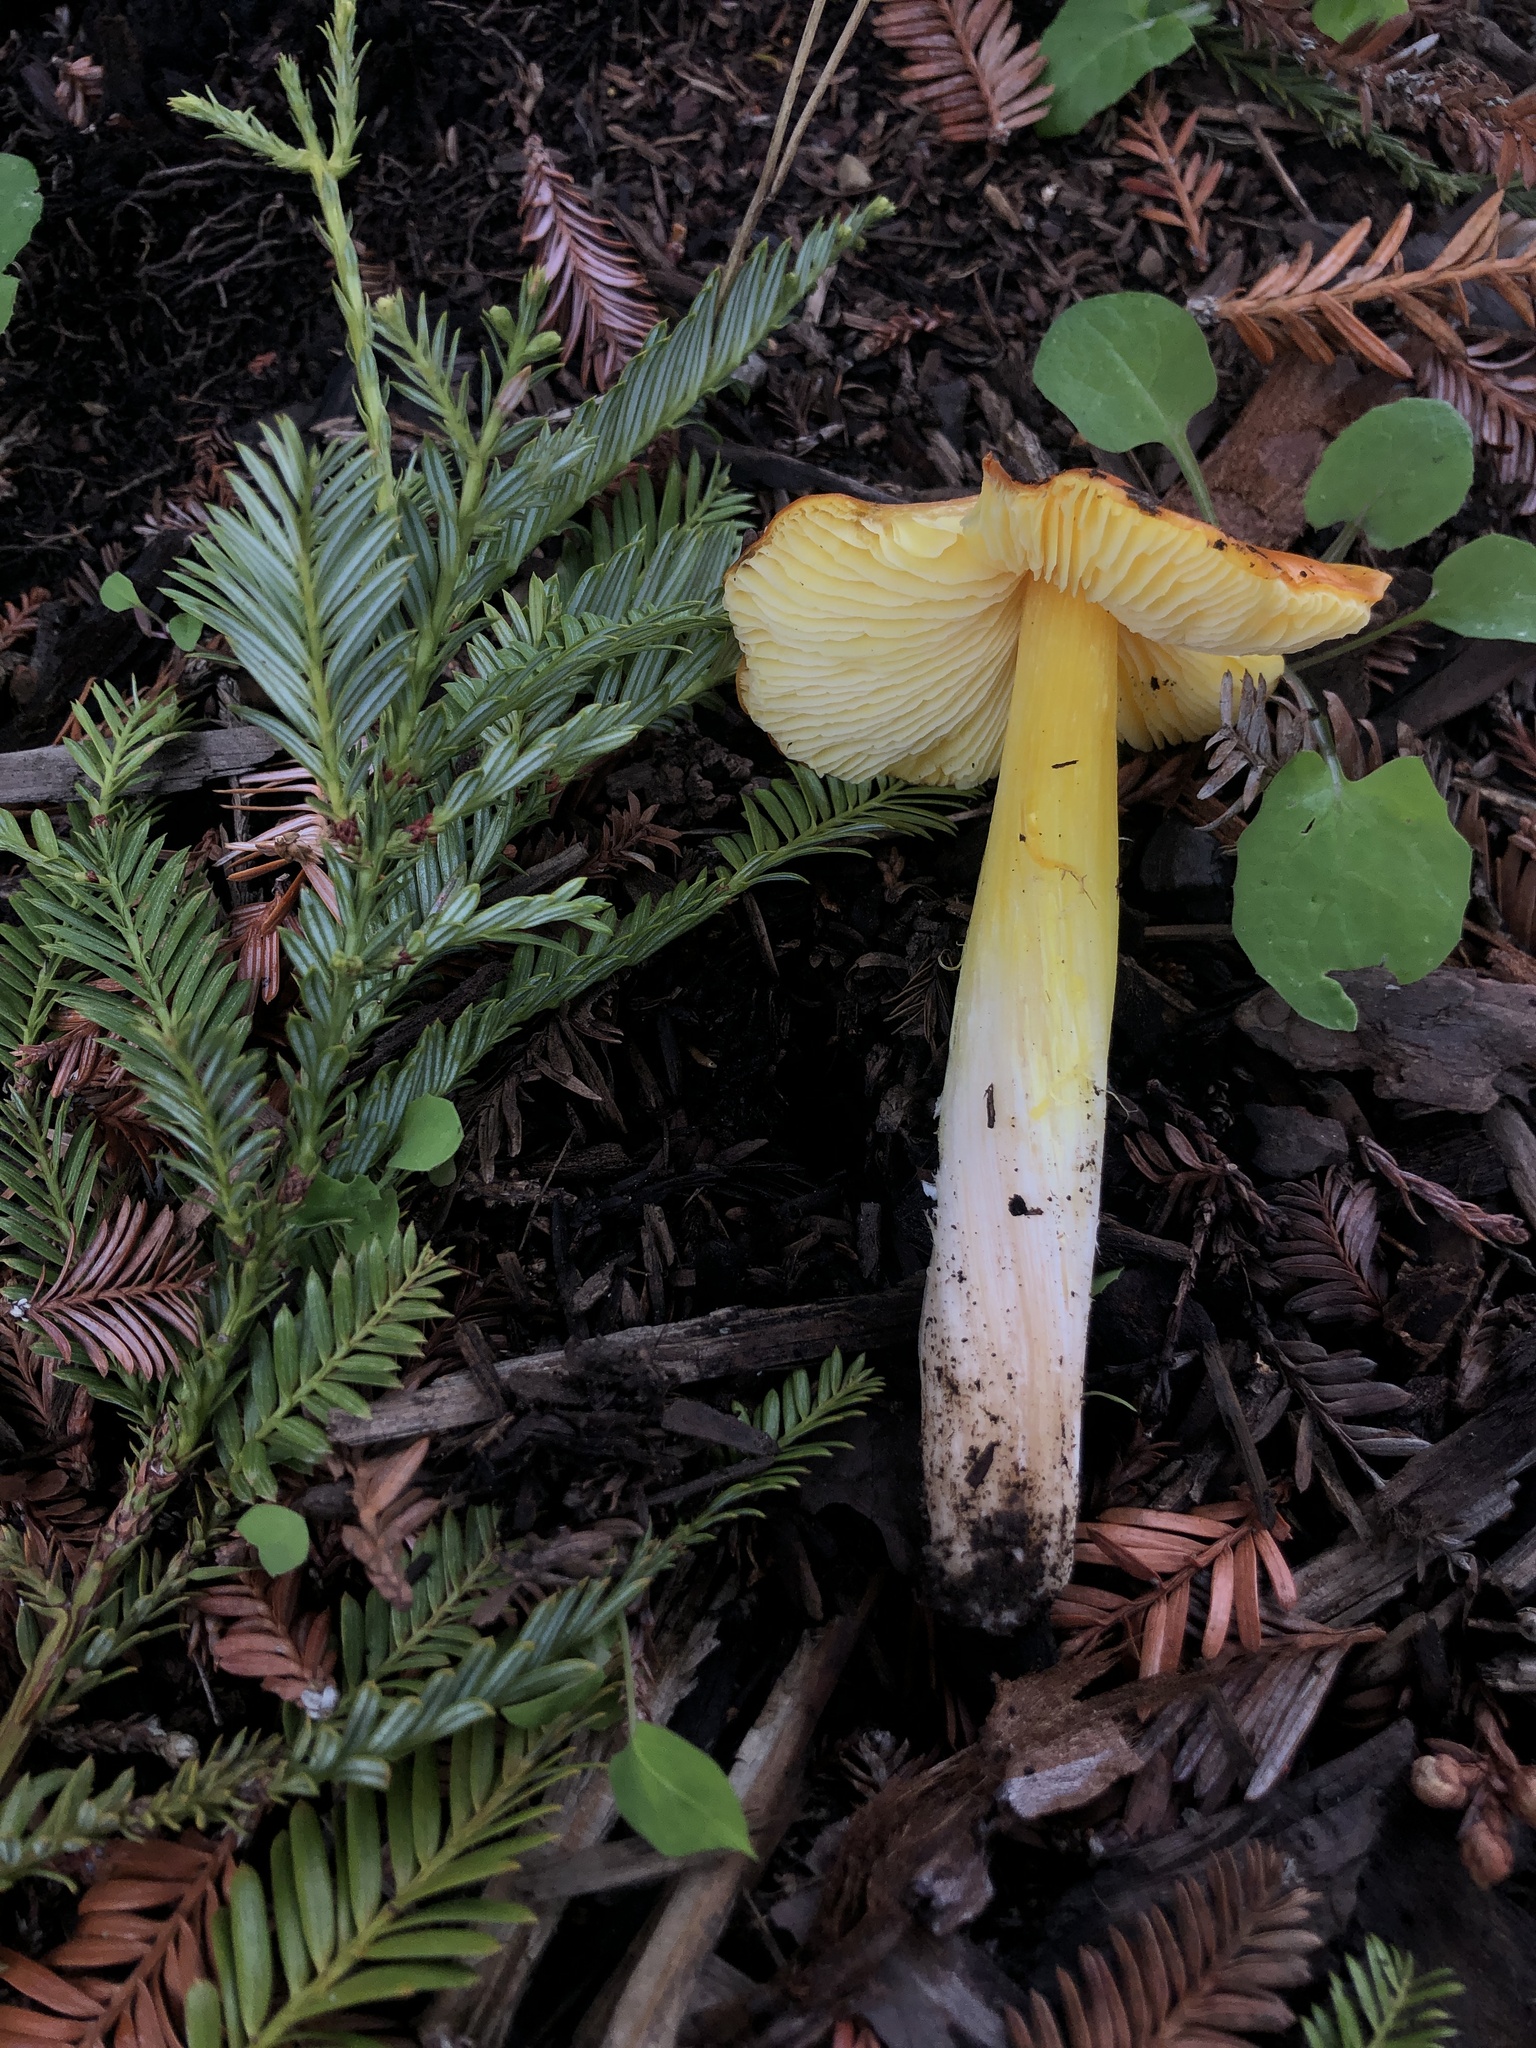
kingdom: Fungi
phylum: Basidiomycota
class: Agaricomycetes
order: Agaricales
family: Hygrophoraceae
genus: Hygrocybe
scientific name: Hygrocybe acutoconica
